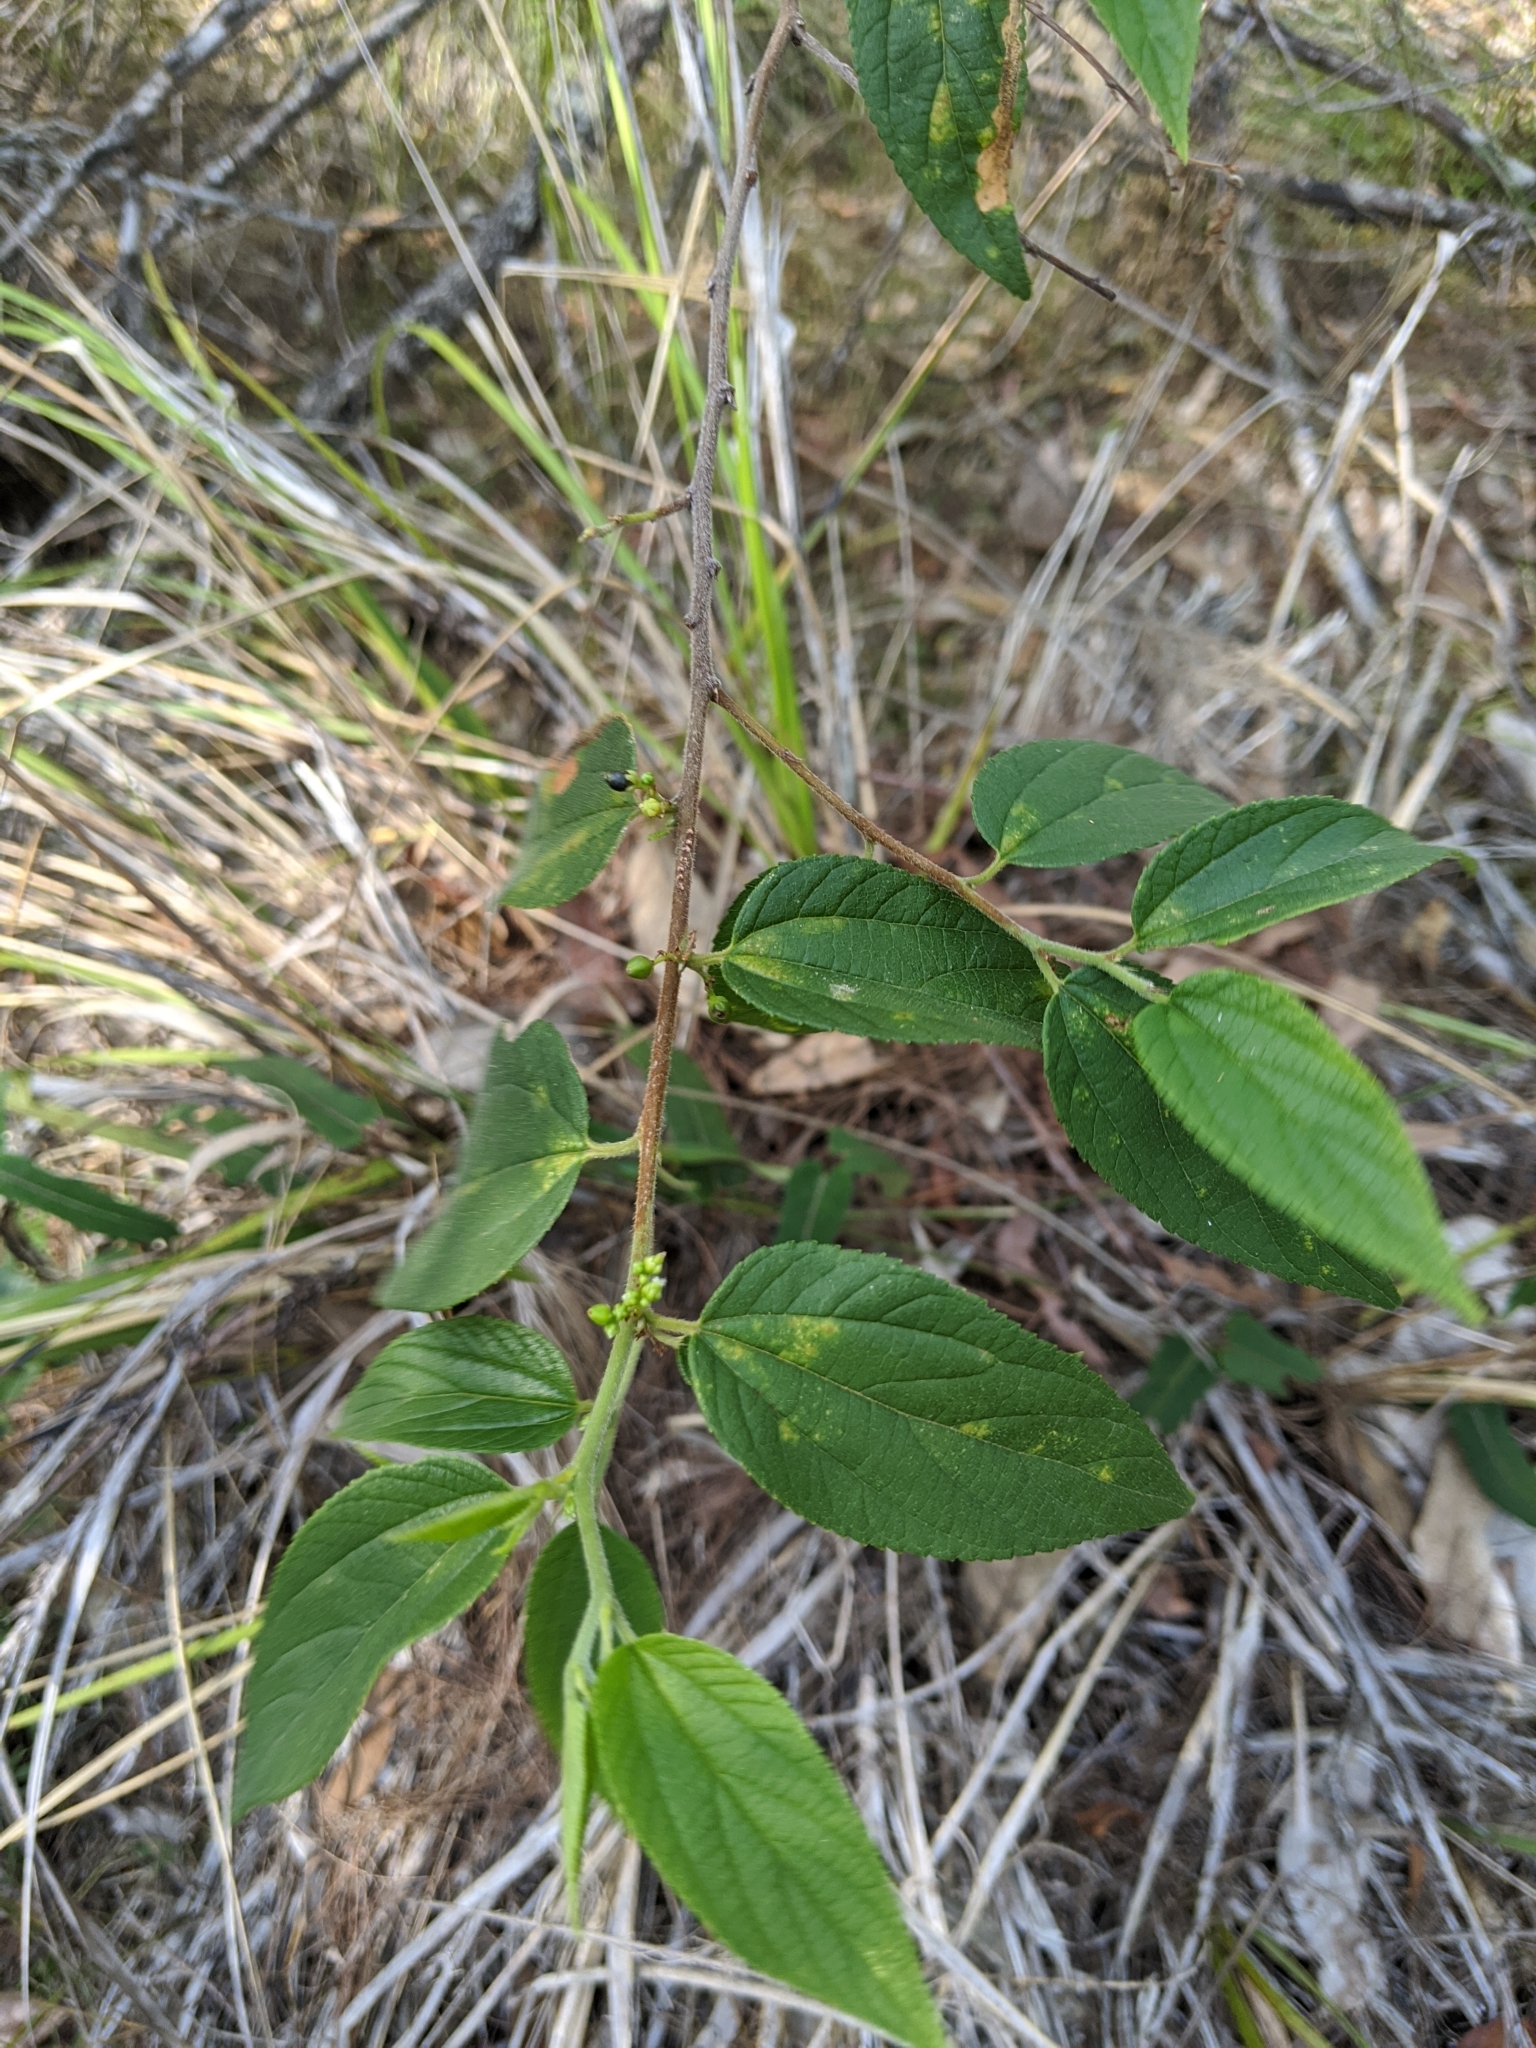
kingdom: Plantae
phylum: Tracheophyta
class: Magnoliopsida
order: Rosales
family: Cannabaceae
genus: Trema
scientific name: Trema tomentosum
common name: Peach-leaf-poisonbush
